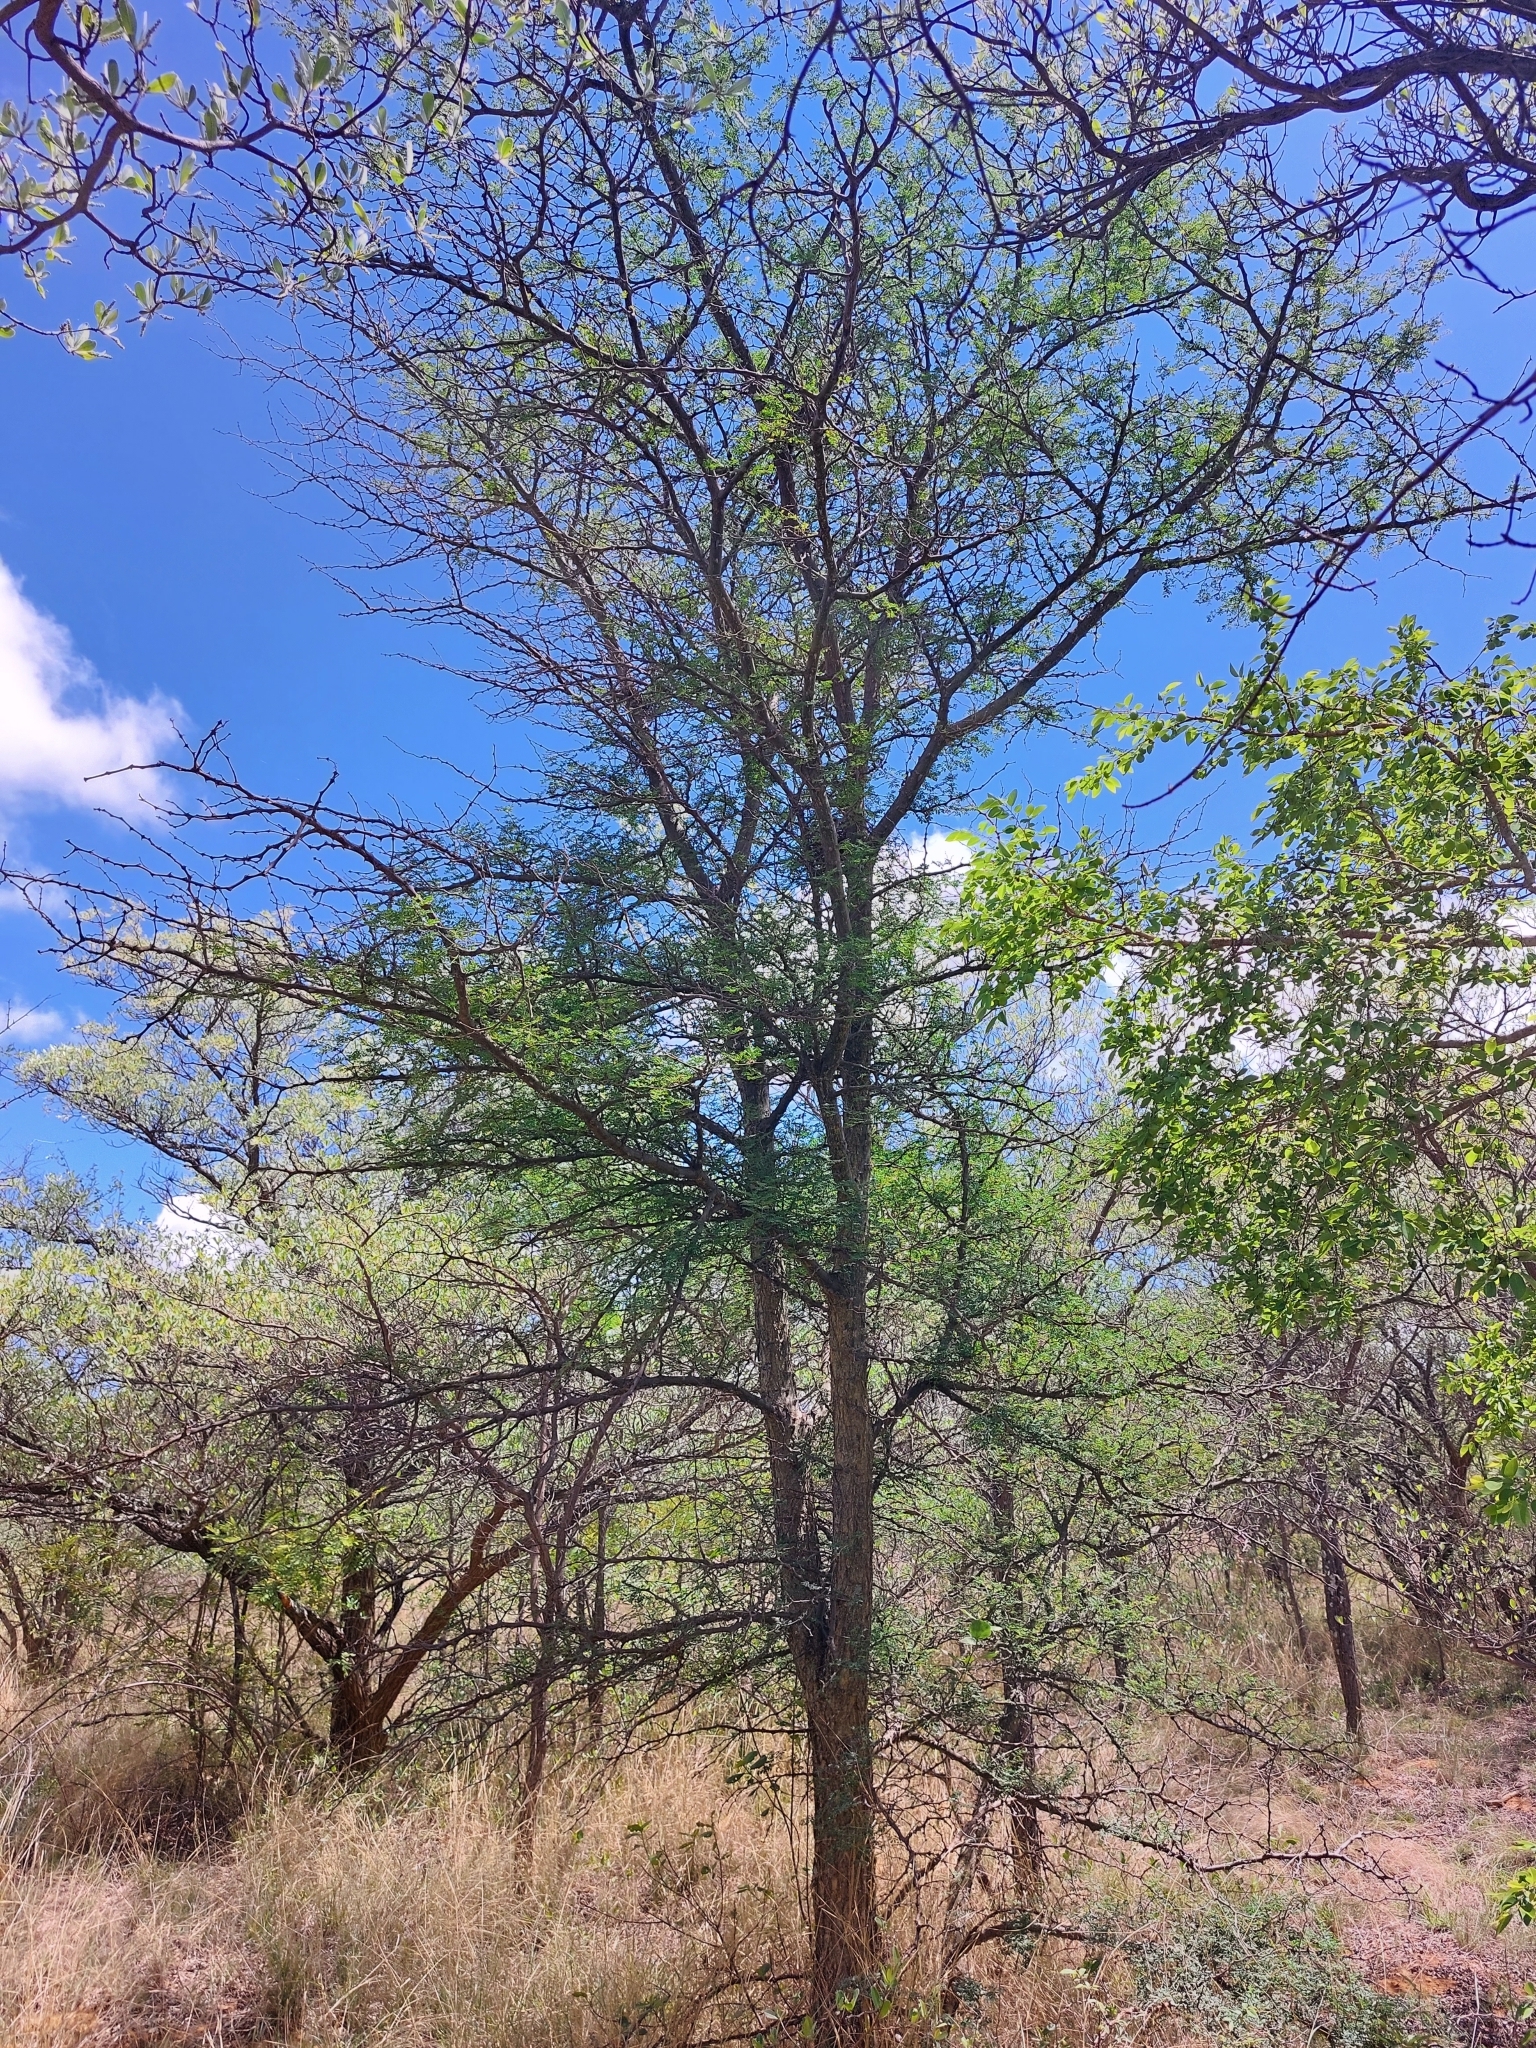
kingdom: Plantae
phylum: Tracheophyta
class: Magnoliopsida
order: Fabales
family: Fabaceae
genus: Senegalia
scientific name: Senegalia burkei
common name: Black monkey thorn
